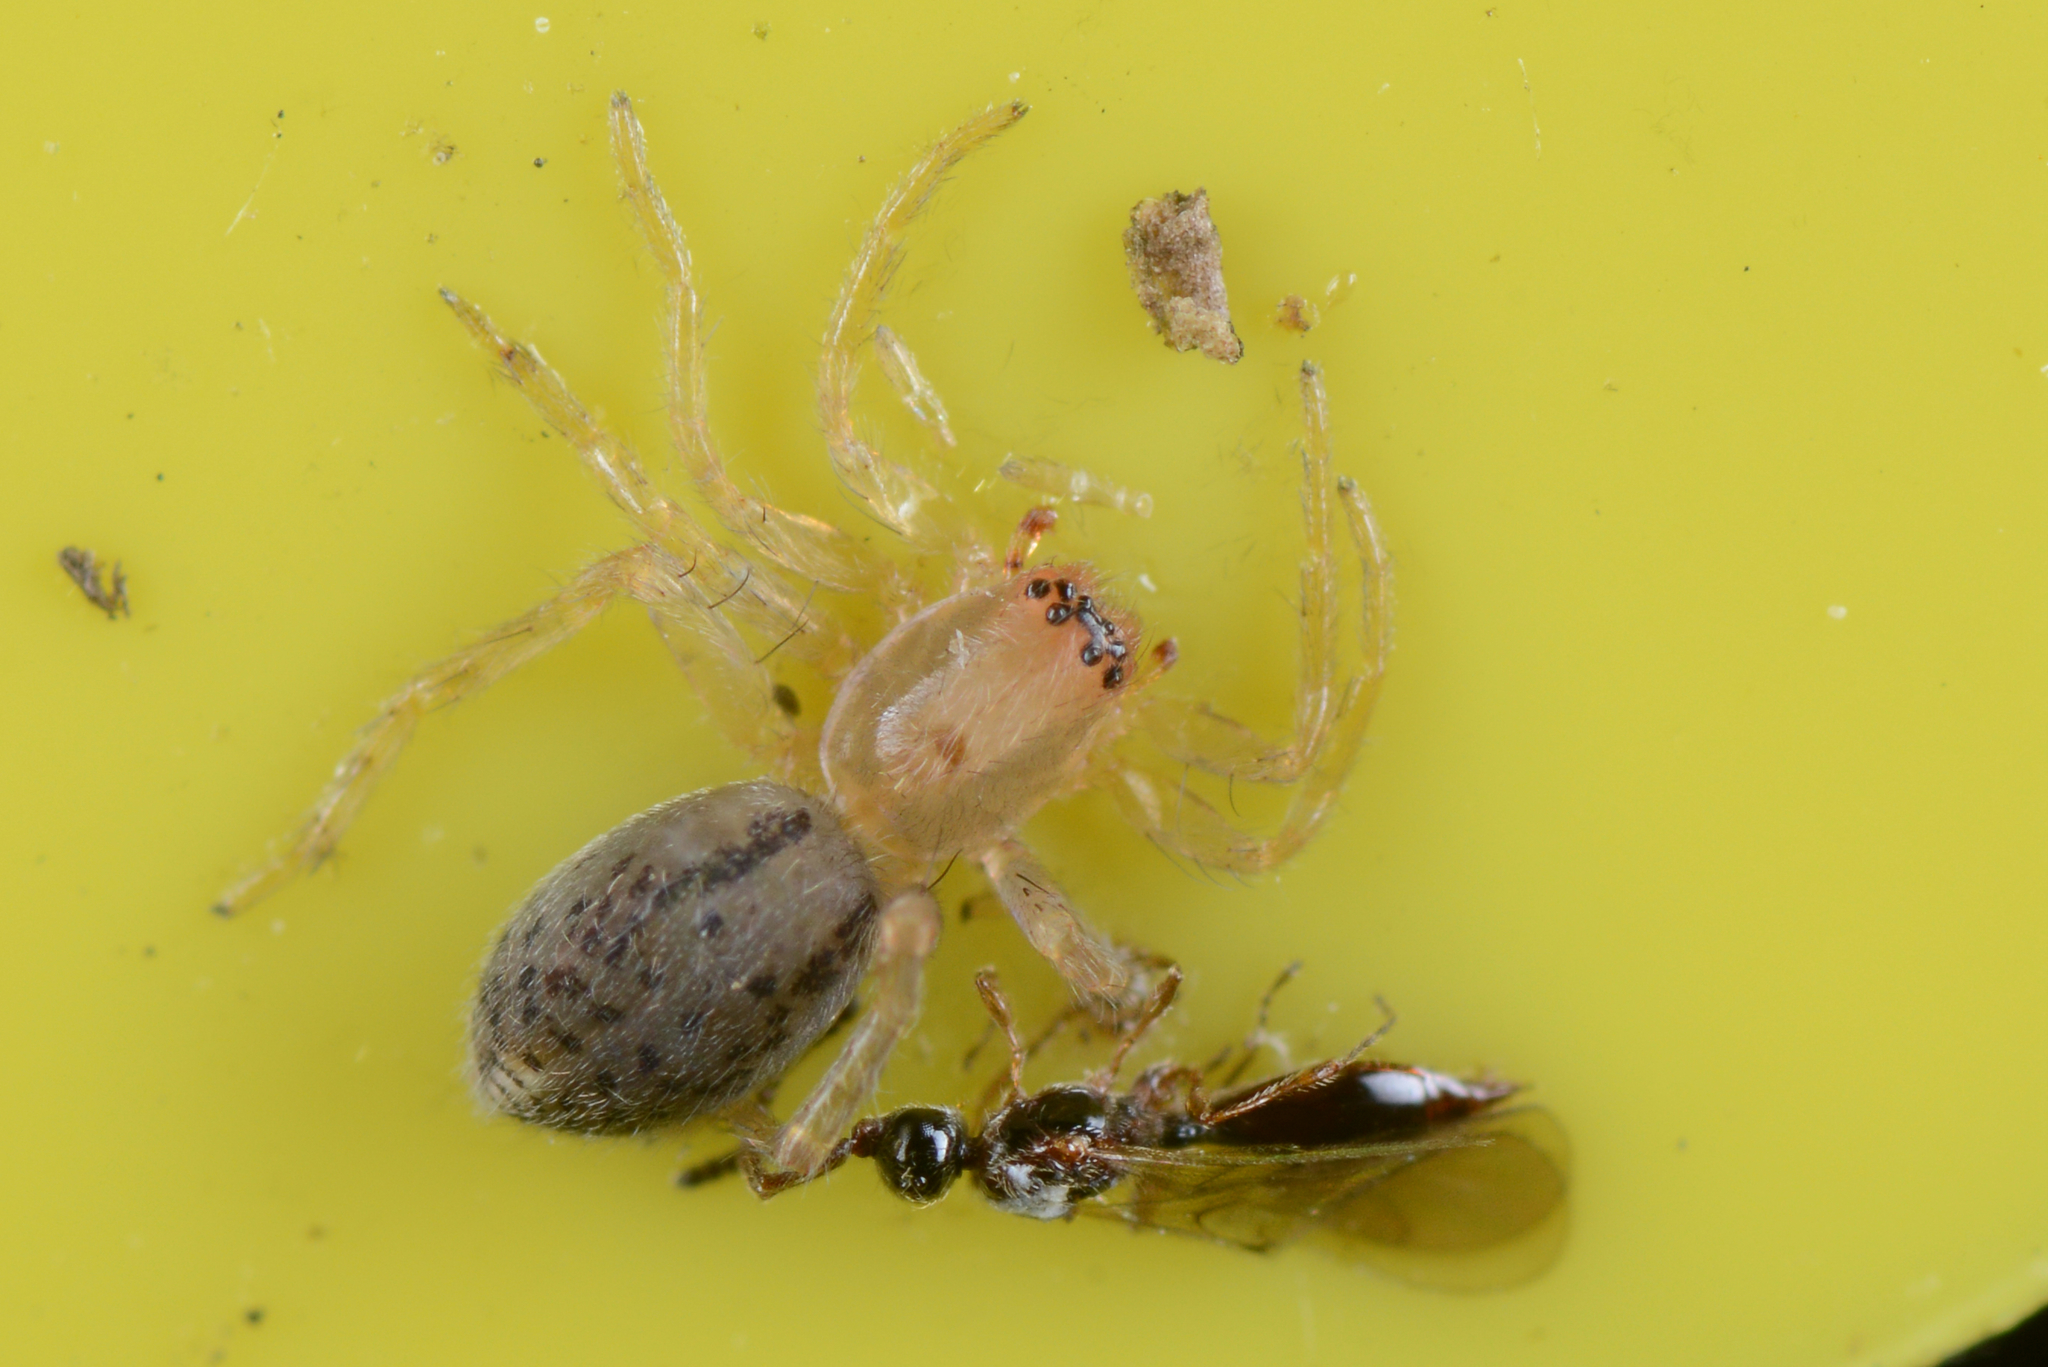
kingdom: Animalia
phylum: Arthropoda
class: Arachnida
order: Araneae
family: Clubionidae
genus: Clubiona
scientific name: Clubiona peculiaris
